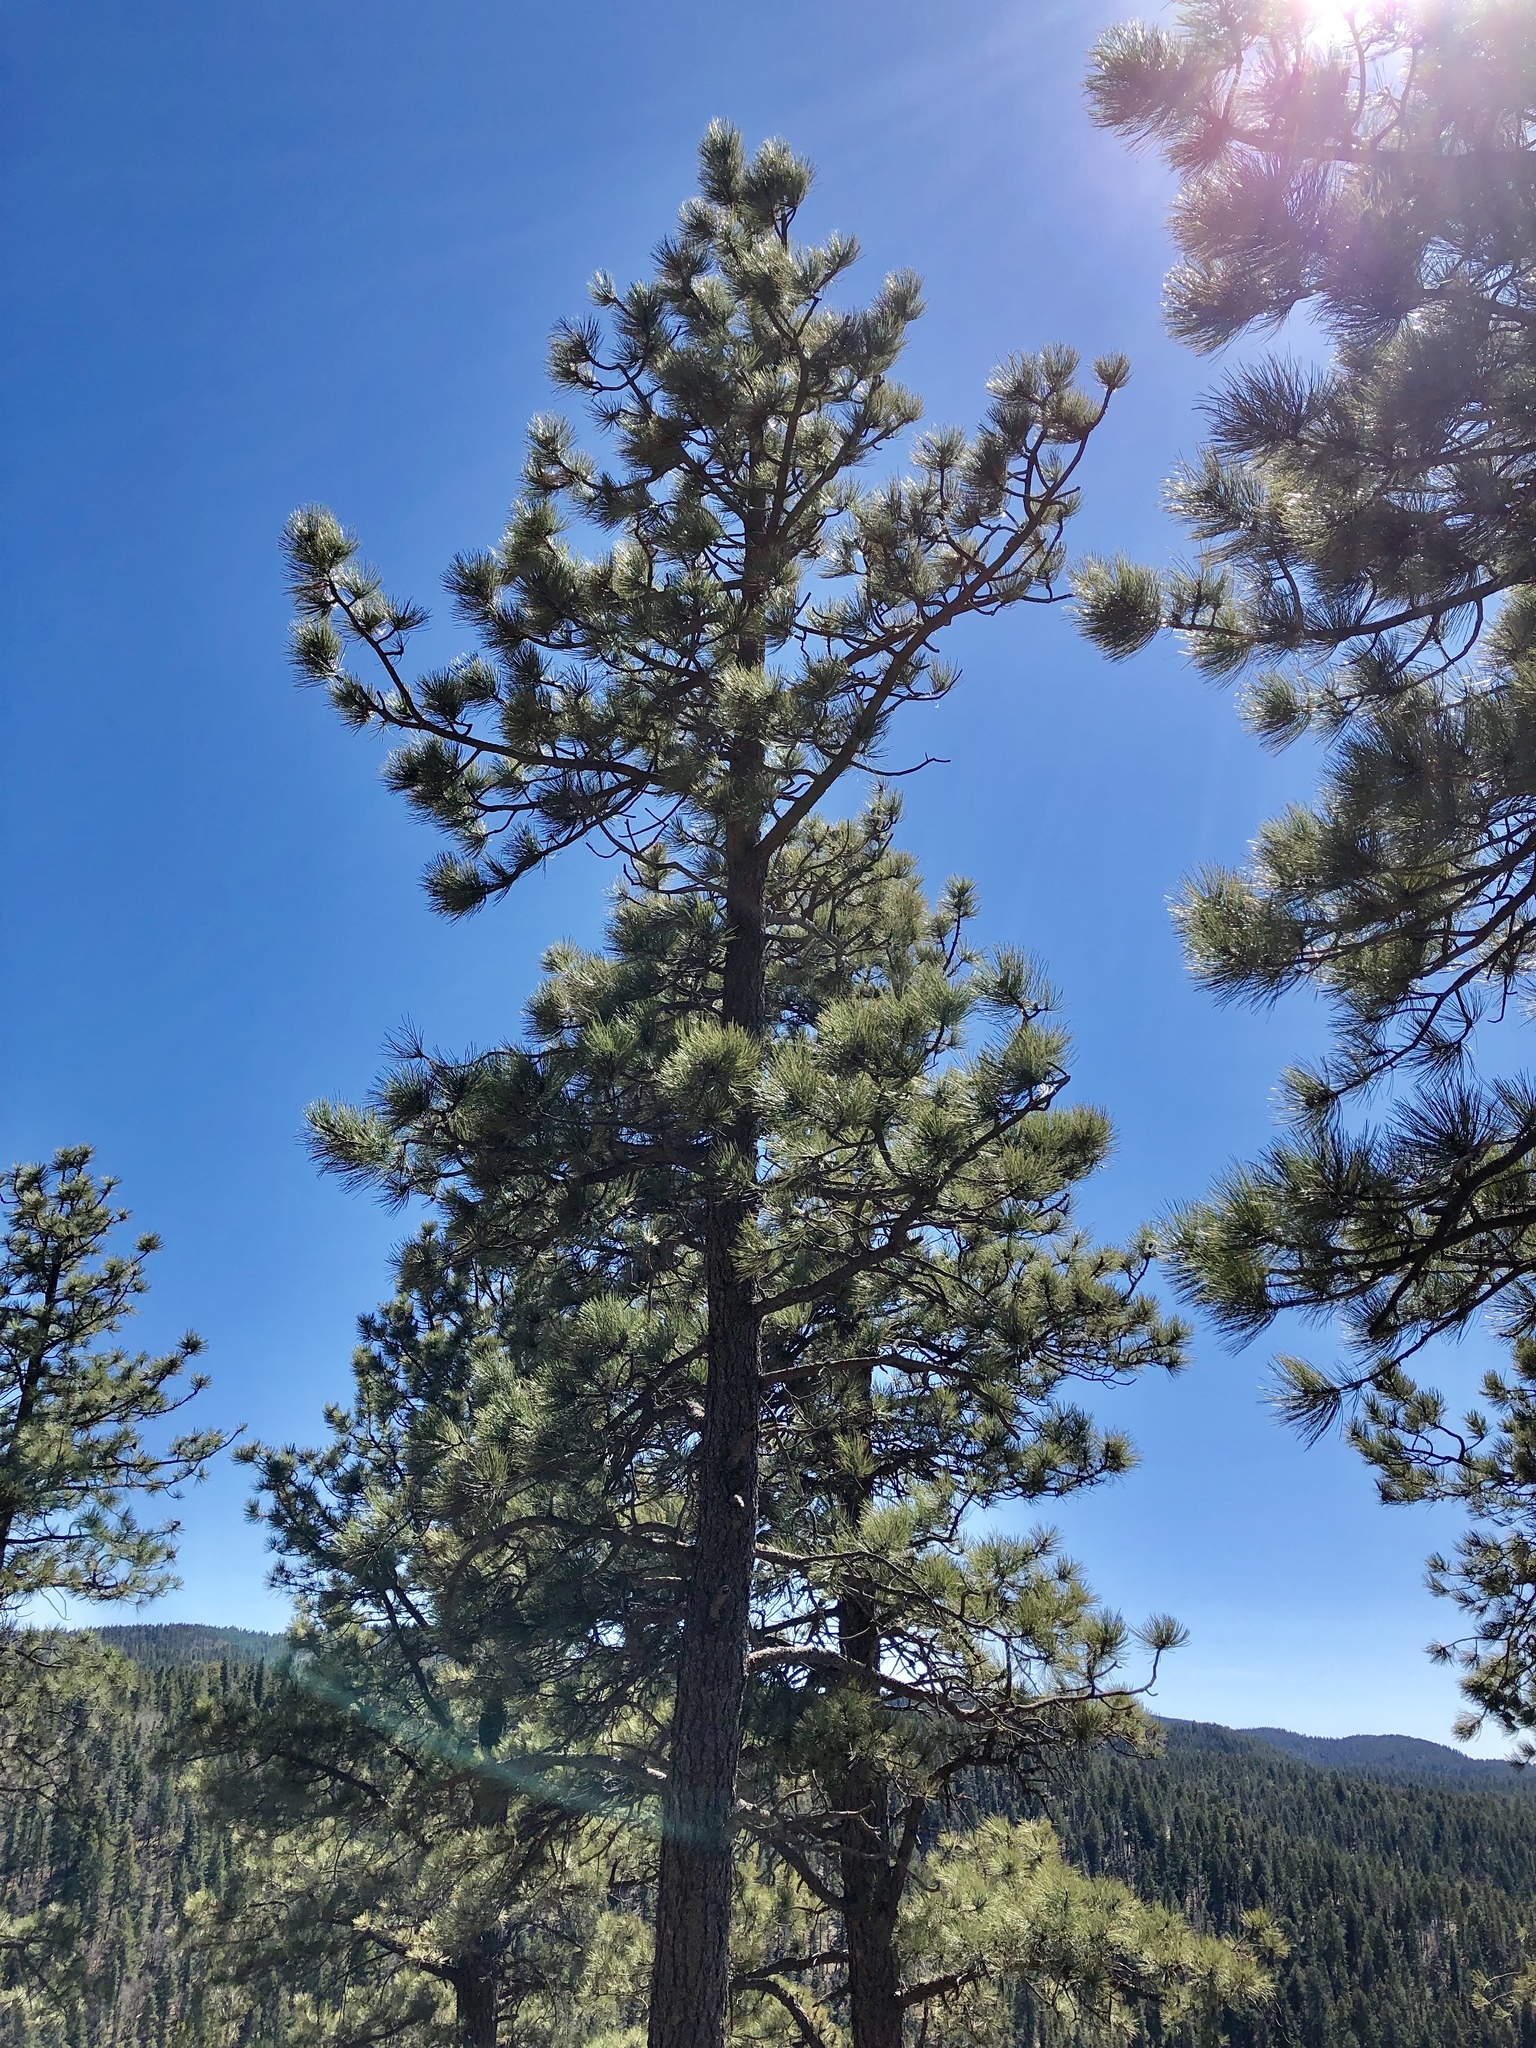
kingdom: Plantae
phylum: Tracheophyta
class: Pinopsida
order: Pinales
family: Pinaceae
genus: Pinus
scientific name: Pinus ponderosa
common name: Western yellow-pine
